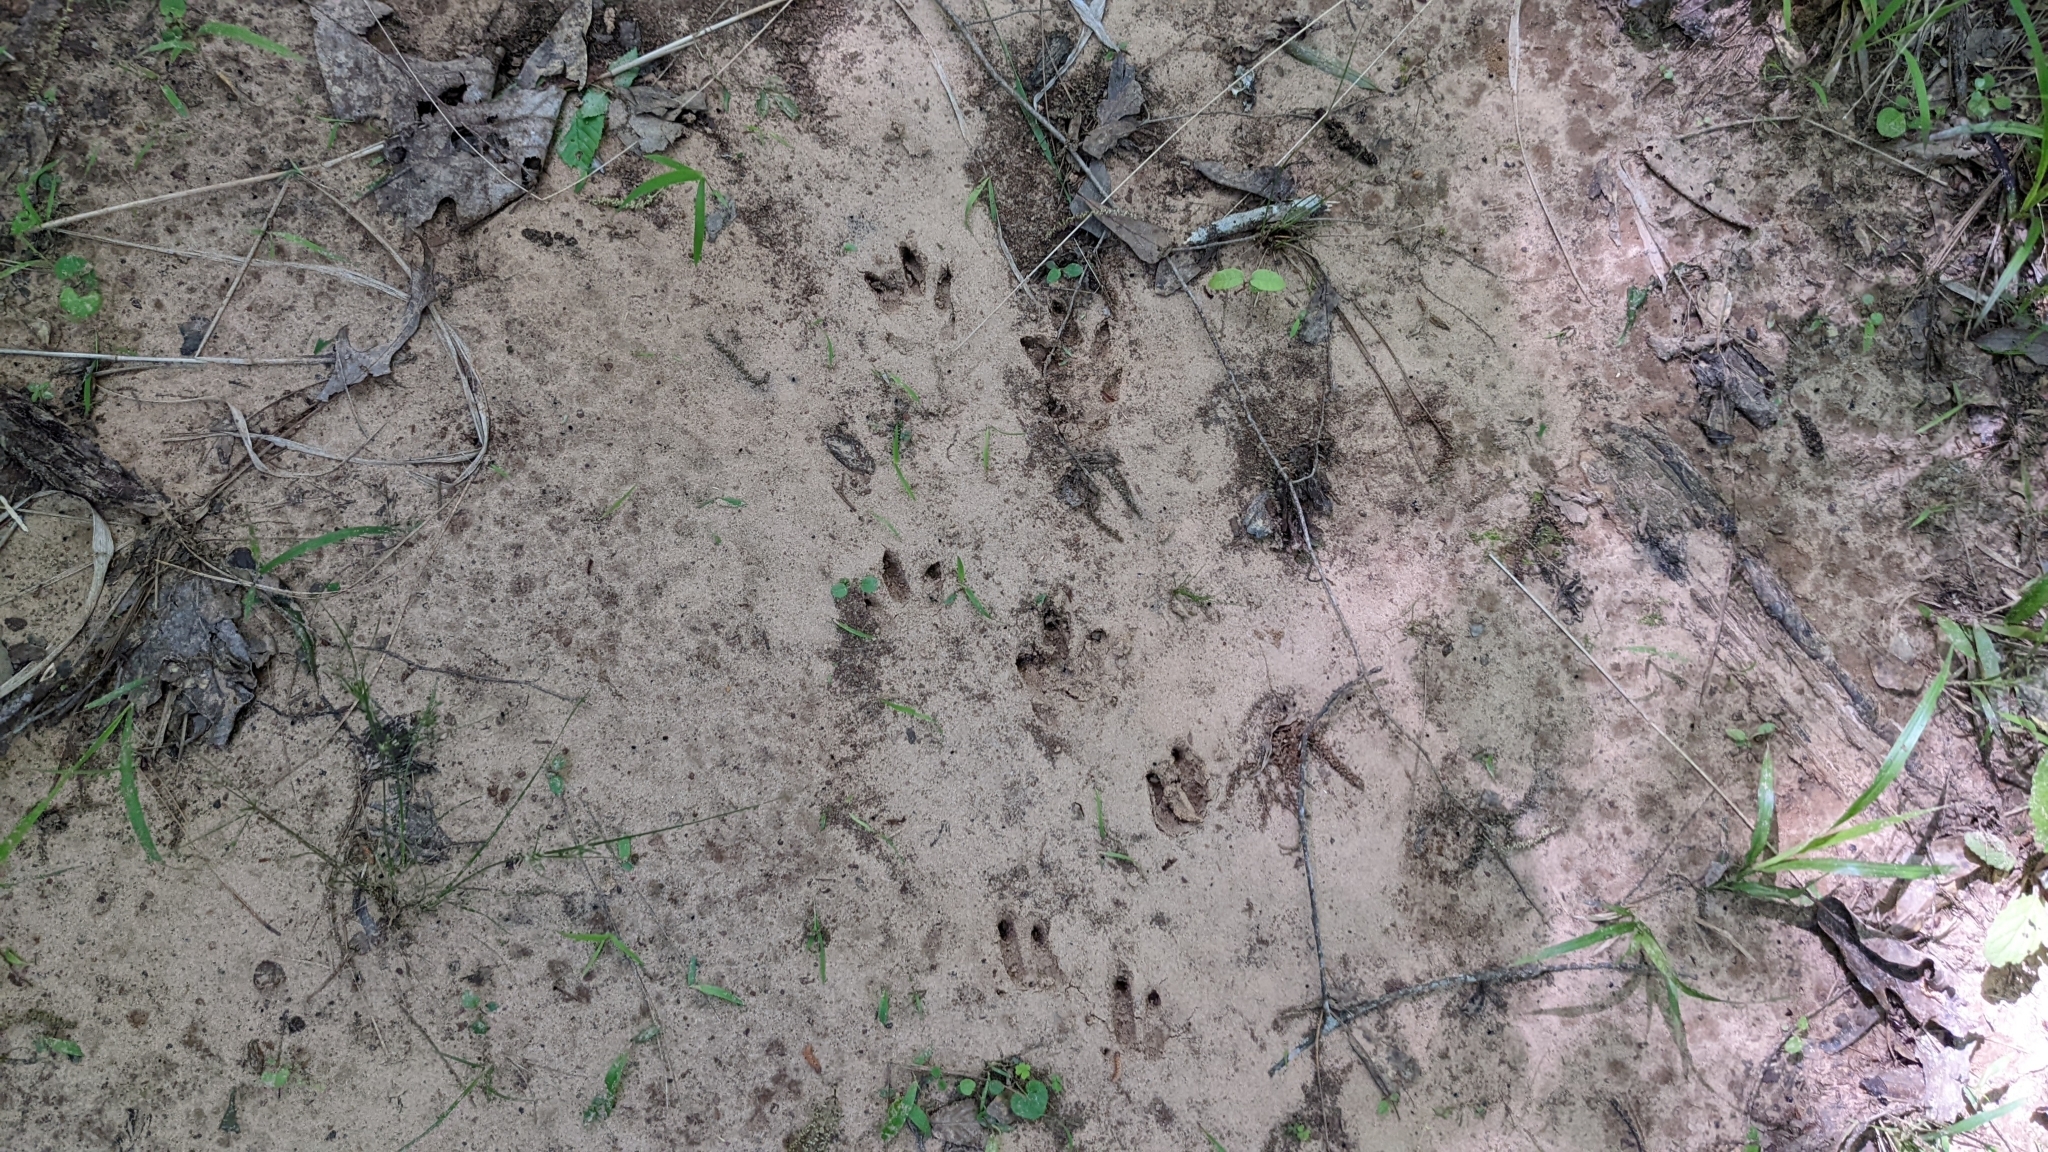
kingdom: Animalia
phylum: Chordata
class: Mammalia
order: Cingulata
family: Dasypodidae
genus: Dasypus
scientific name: Dasypus novemcinctus
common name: Nine-banded armadillo
